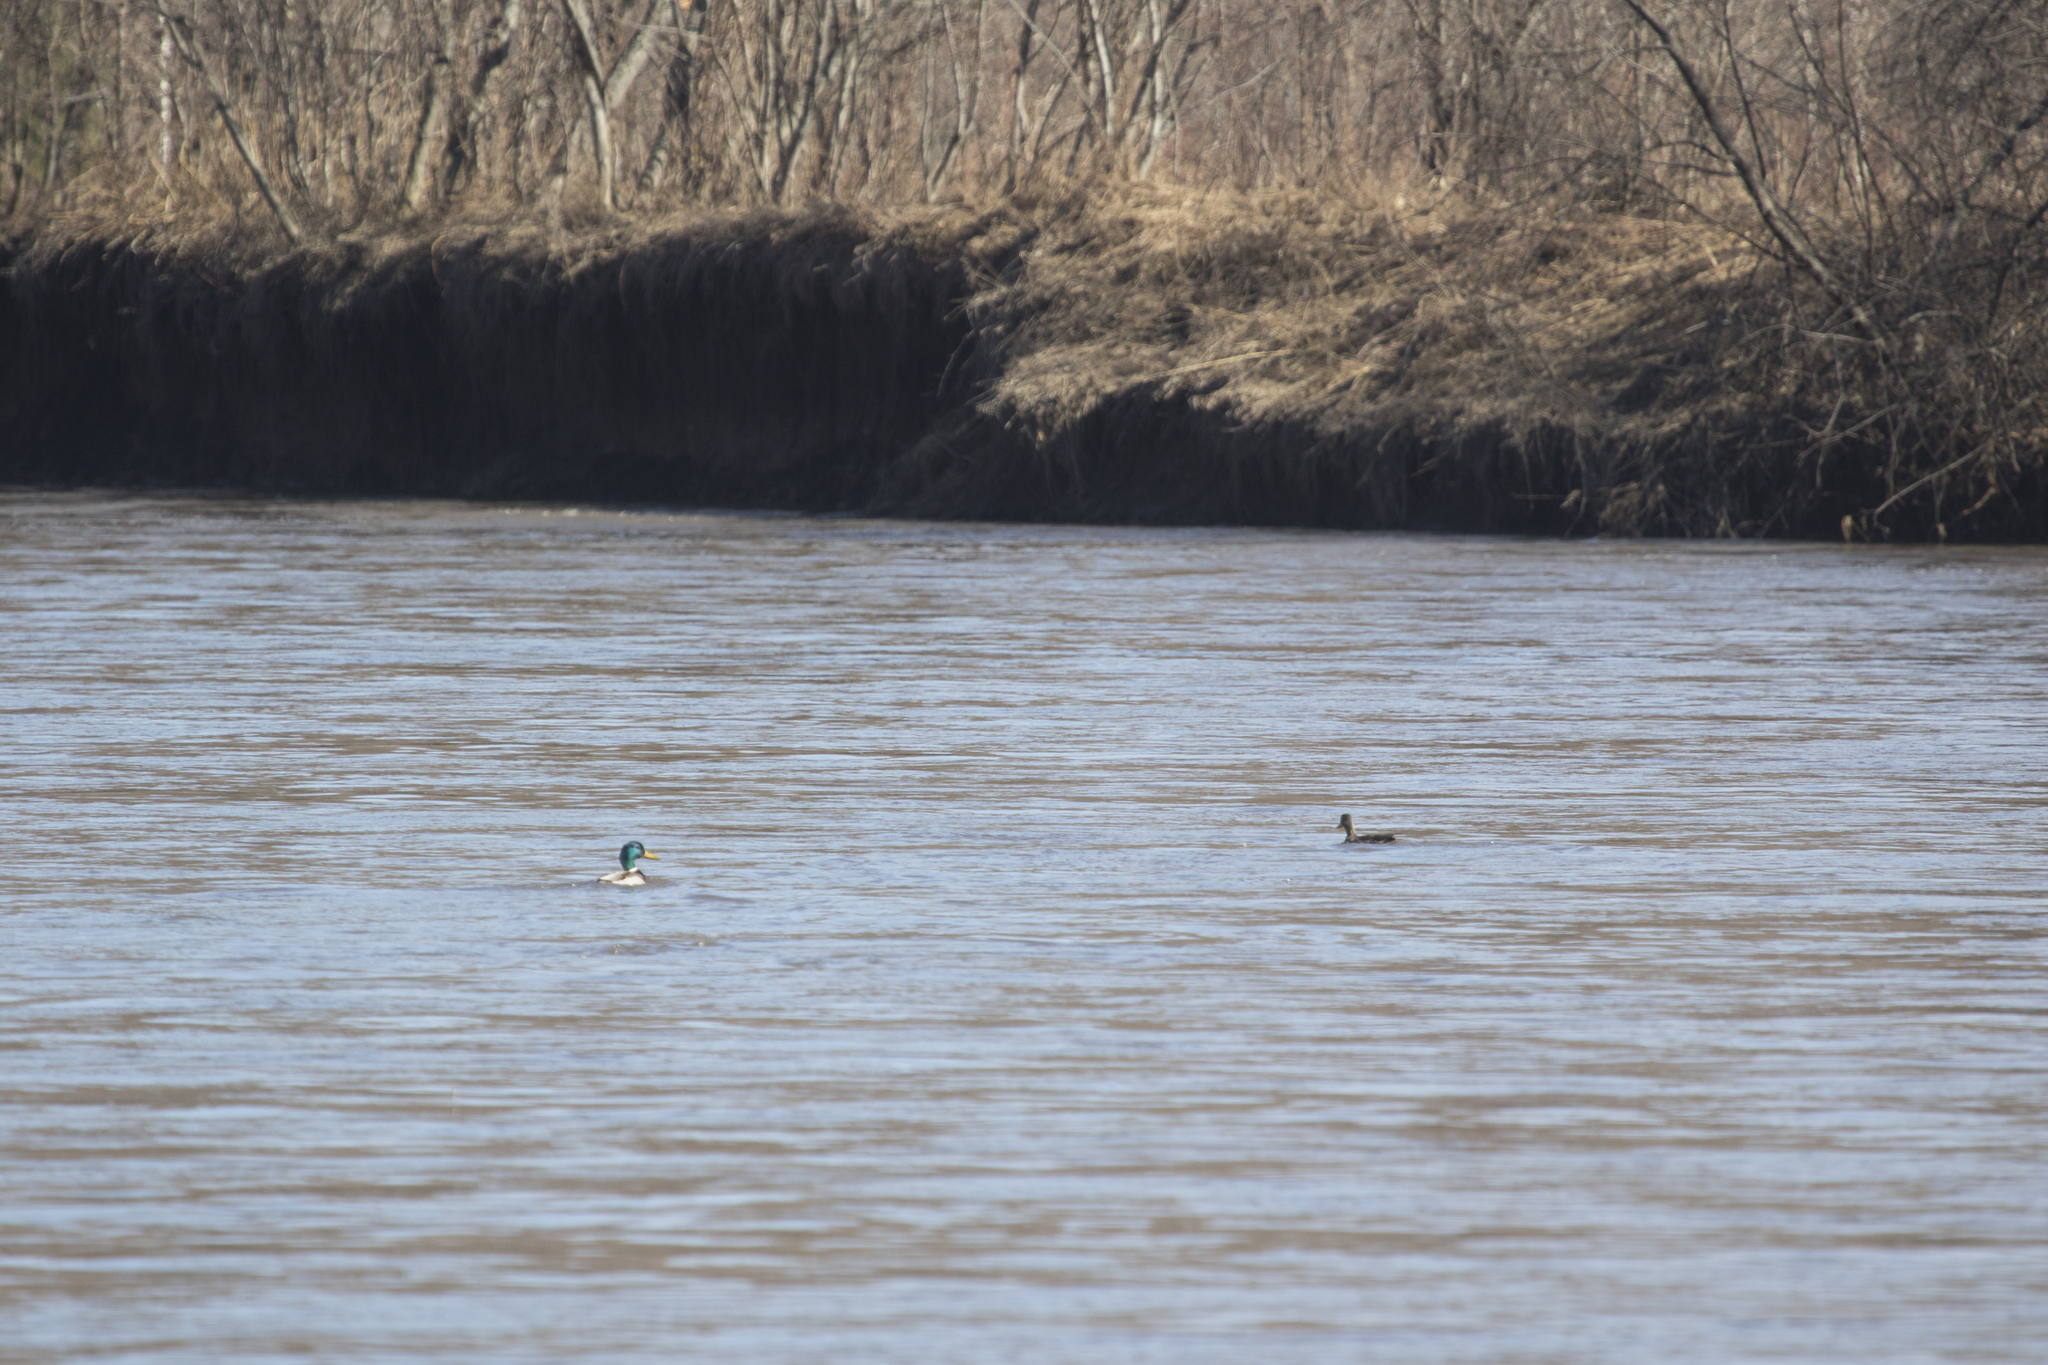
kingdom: Animalia
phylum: Chordata
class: Aves
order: Anseriformes
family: Anatidae
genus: Anas
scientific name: Anas platyrhynchos
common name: Mallard
